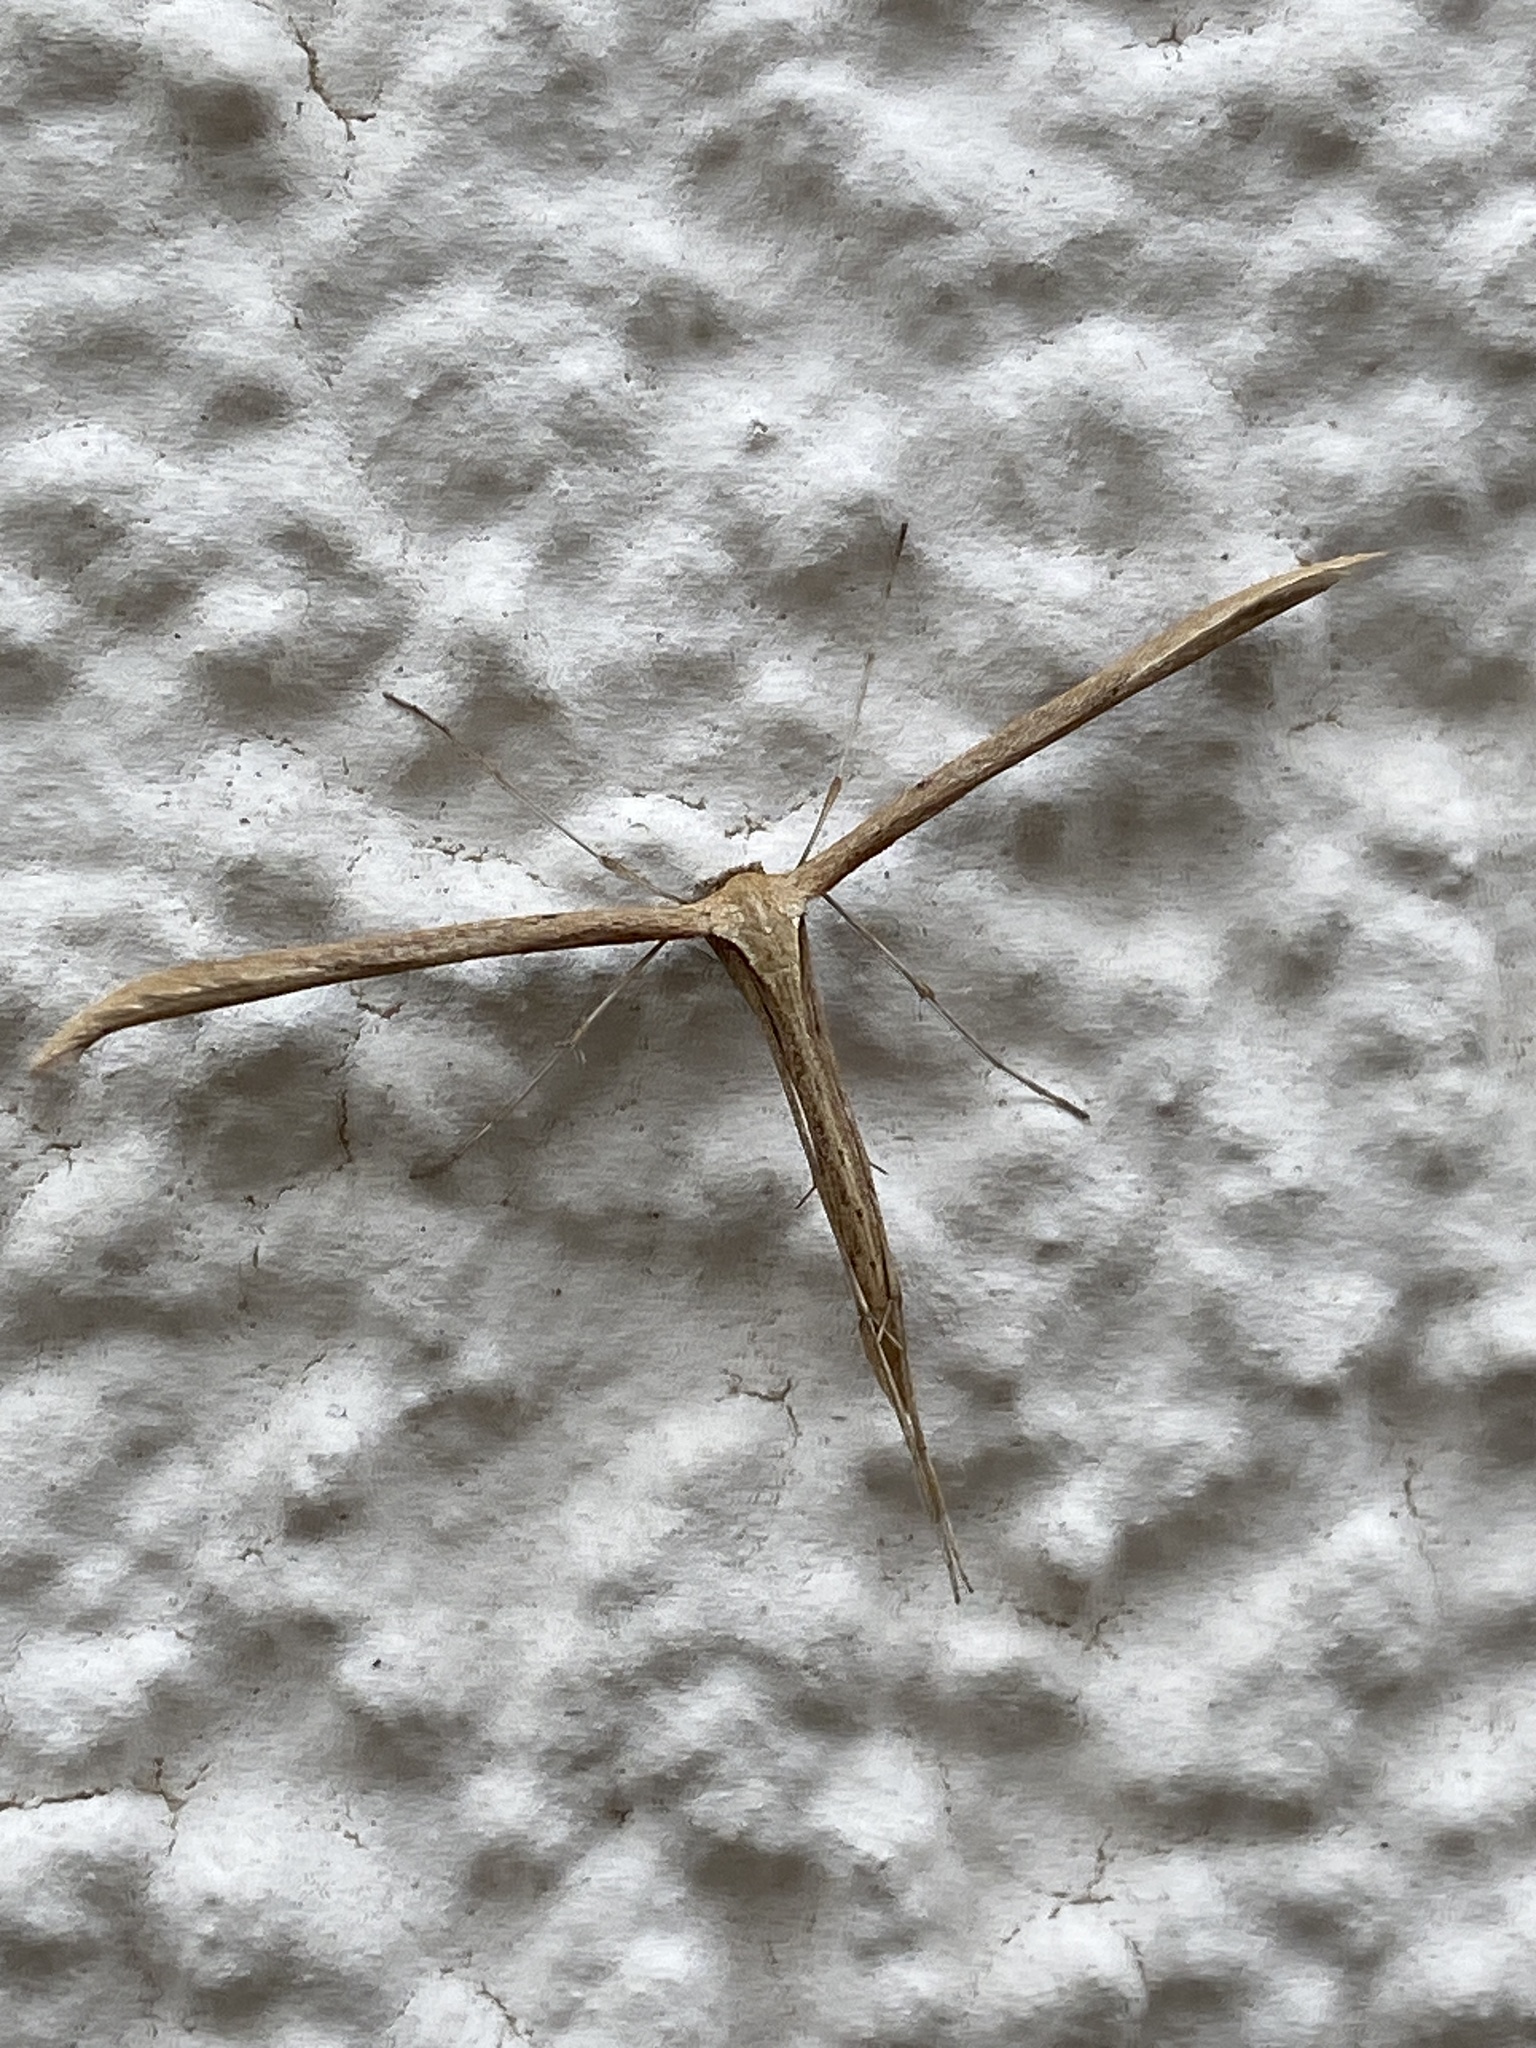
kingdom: Animalia
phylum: Arthropoda
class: Insecta
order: Lepidoptera
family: Pterophoridae
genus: Emmelina
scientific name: Emmelina monodactyla
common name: Common plume
